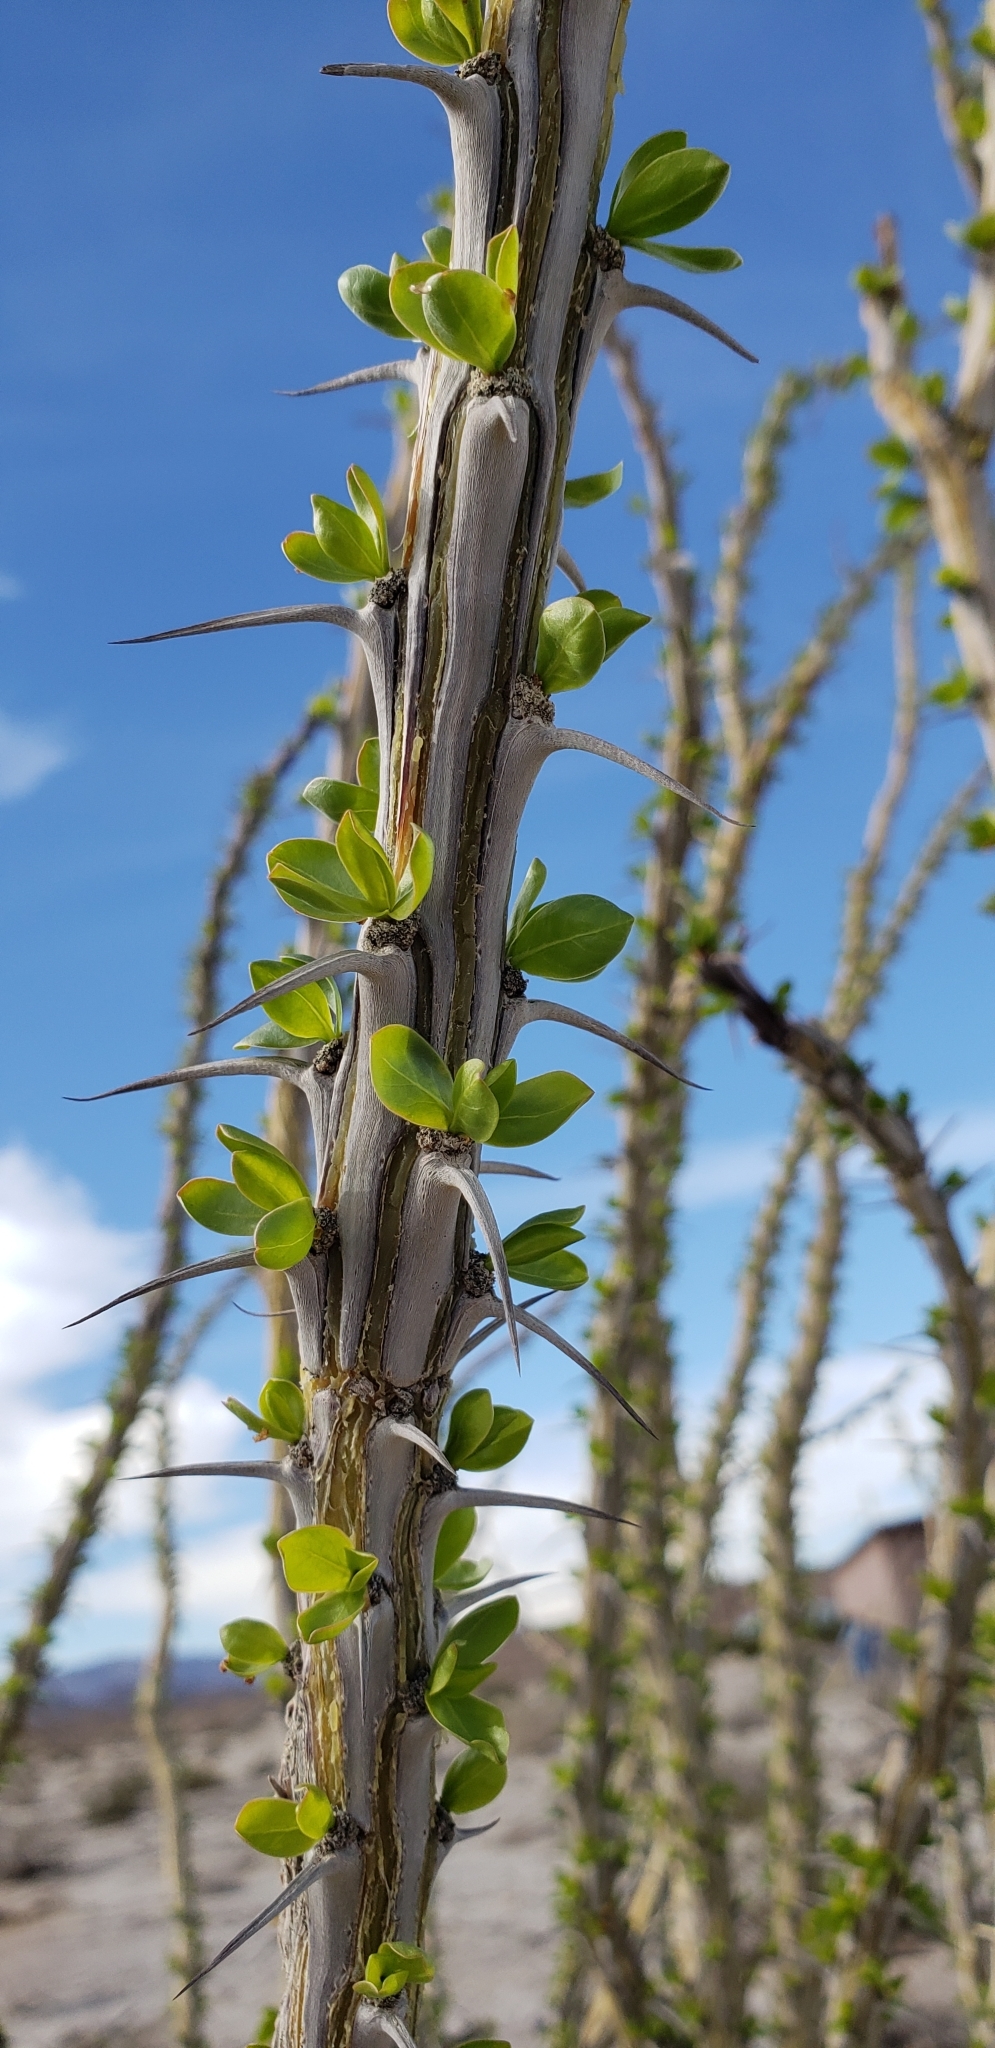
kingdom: Plantae
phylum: Tracheophyta
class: Magnoliopsida
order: Ericales
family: Fouquieriaceae
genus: Fouquieria
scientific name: Fouquieria splendens
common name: Vine-cactus
